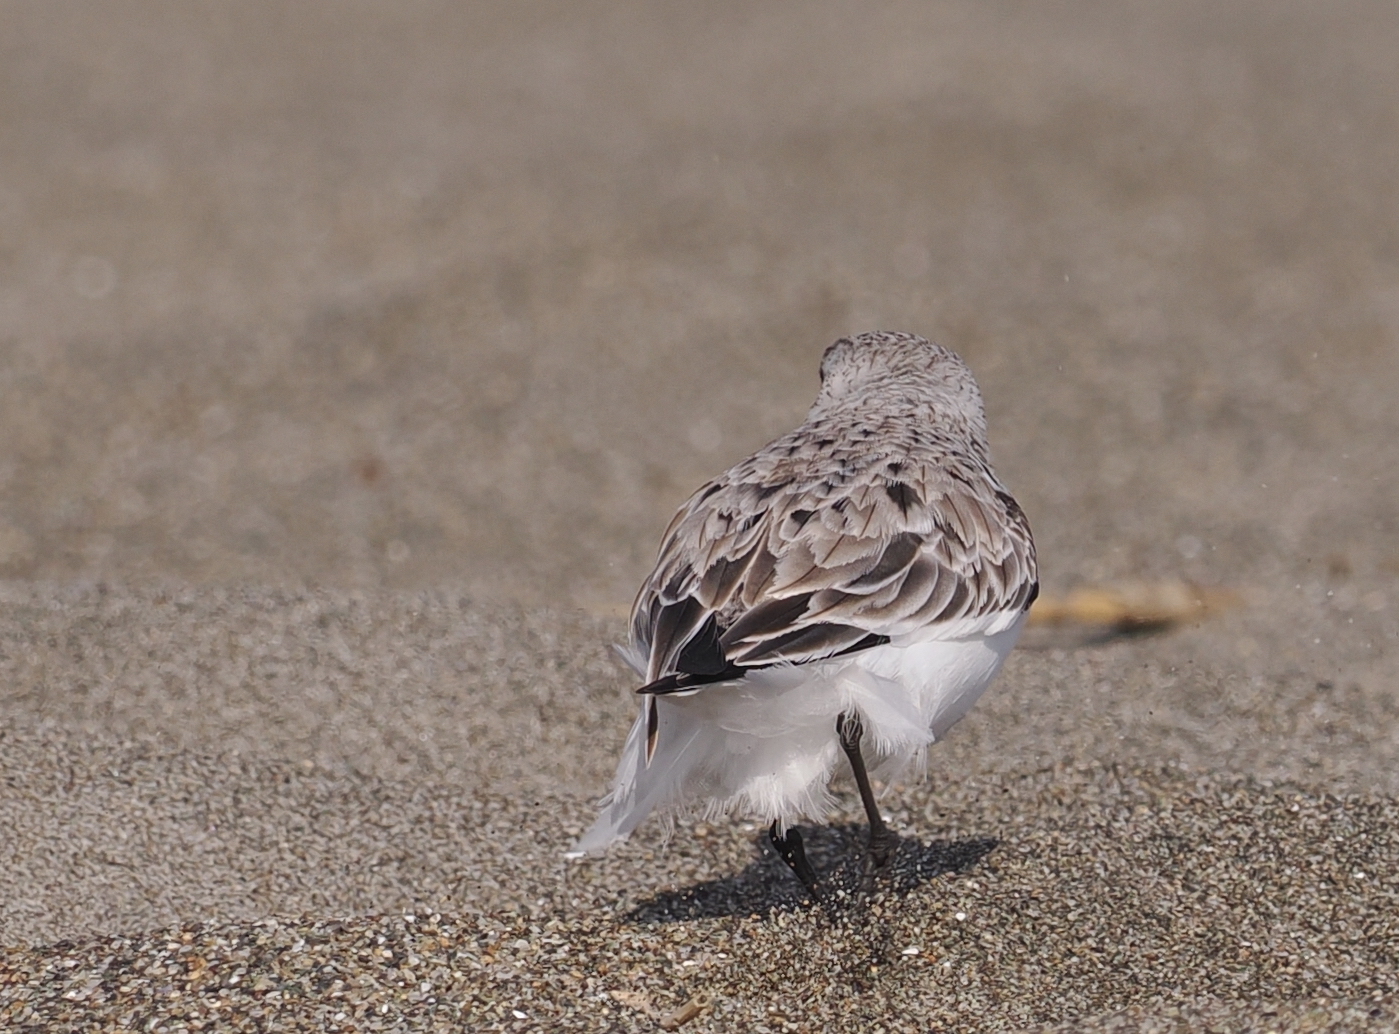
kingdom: Animalia
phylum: Chordata
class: Aves
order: Charadriiformes
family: Scolopacidae
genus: Calidris
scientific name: Calidris alba
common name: Sanderling
